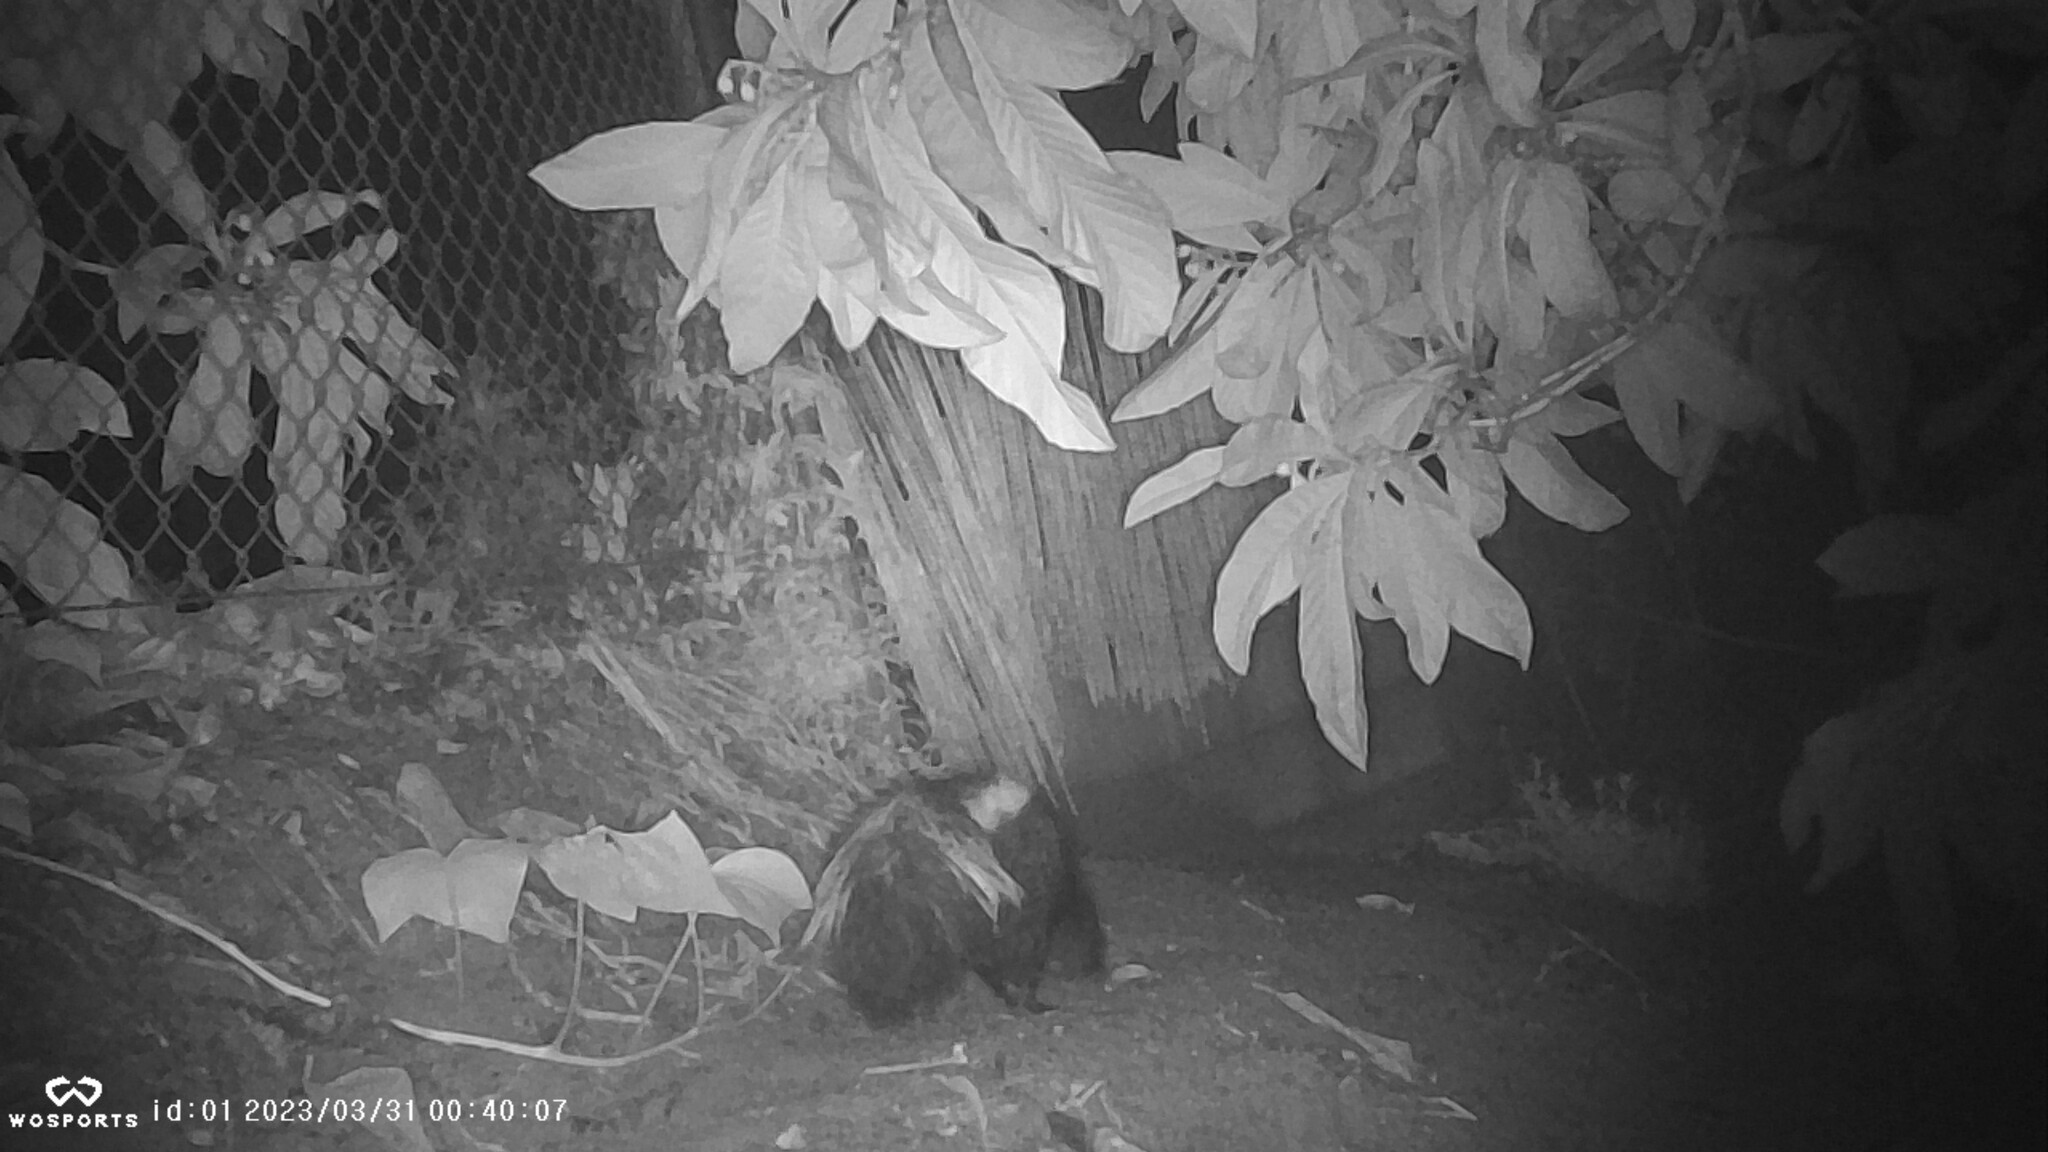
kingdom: Animalia
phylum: Chordata
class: Mammalia
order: Carnivora
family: Mephitidae
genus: Mephitis
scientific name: Mephitis mephitis
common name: Striped skunk
